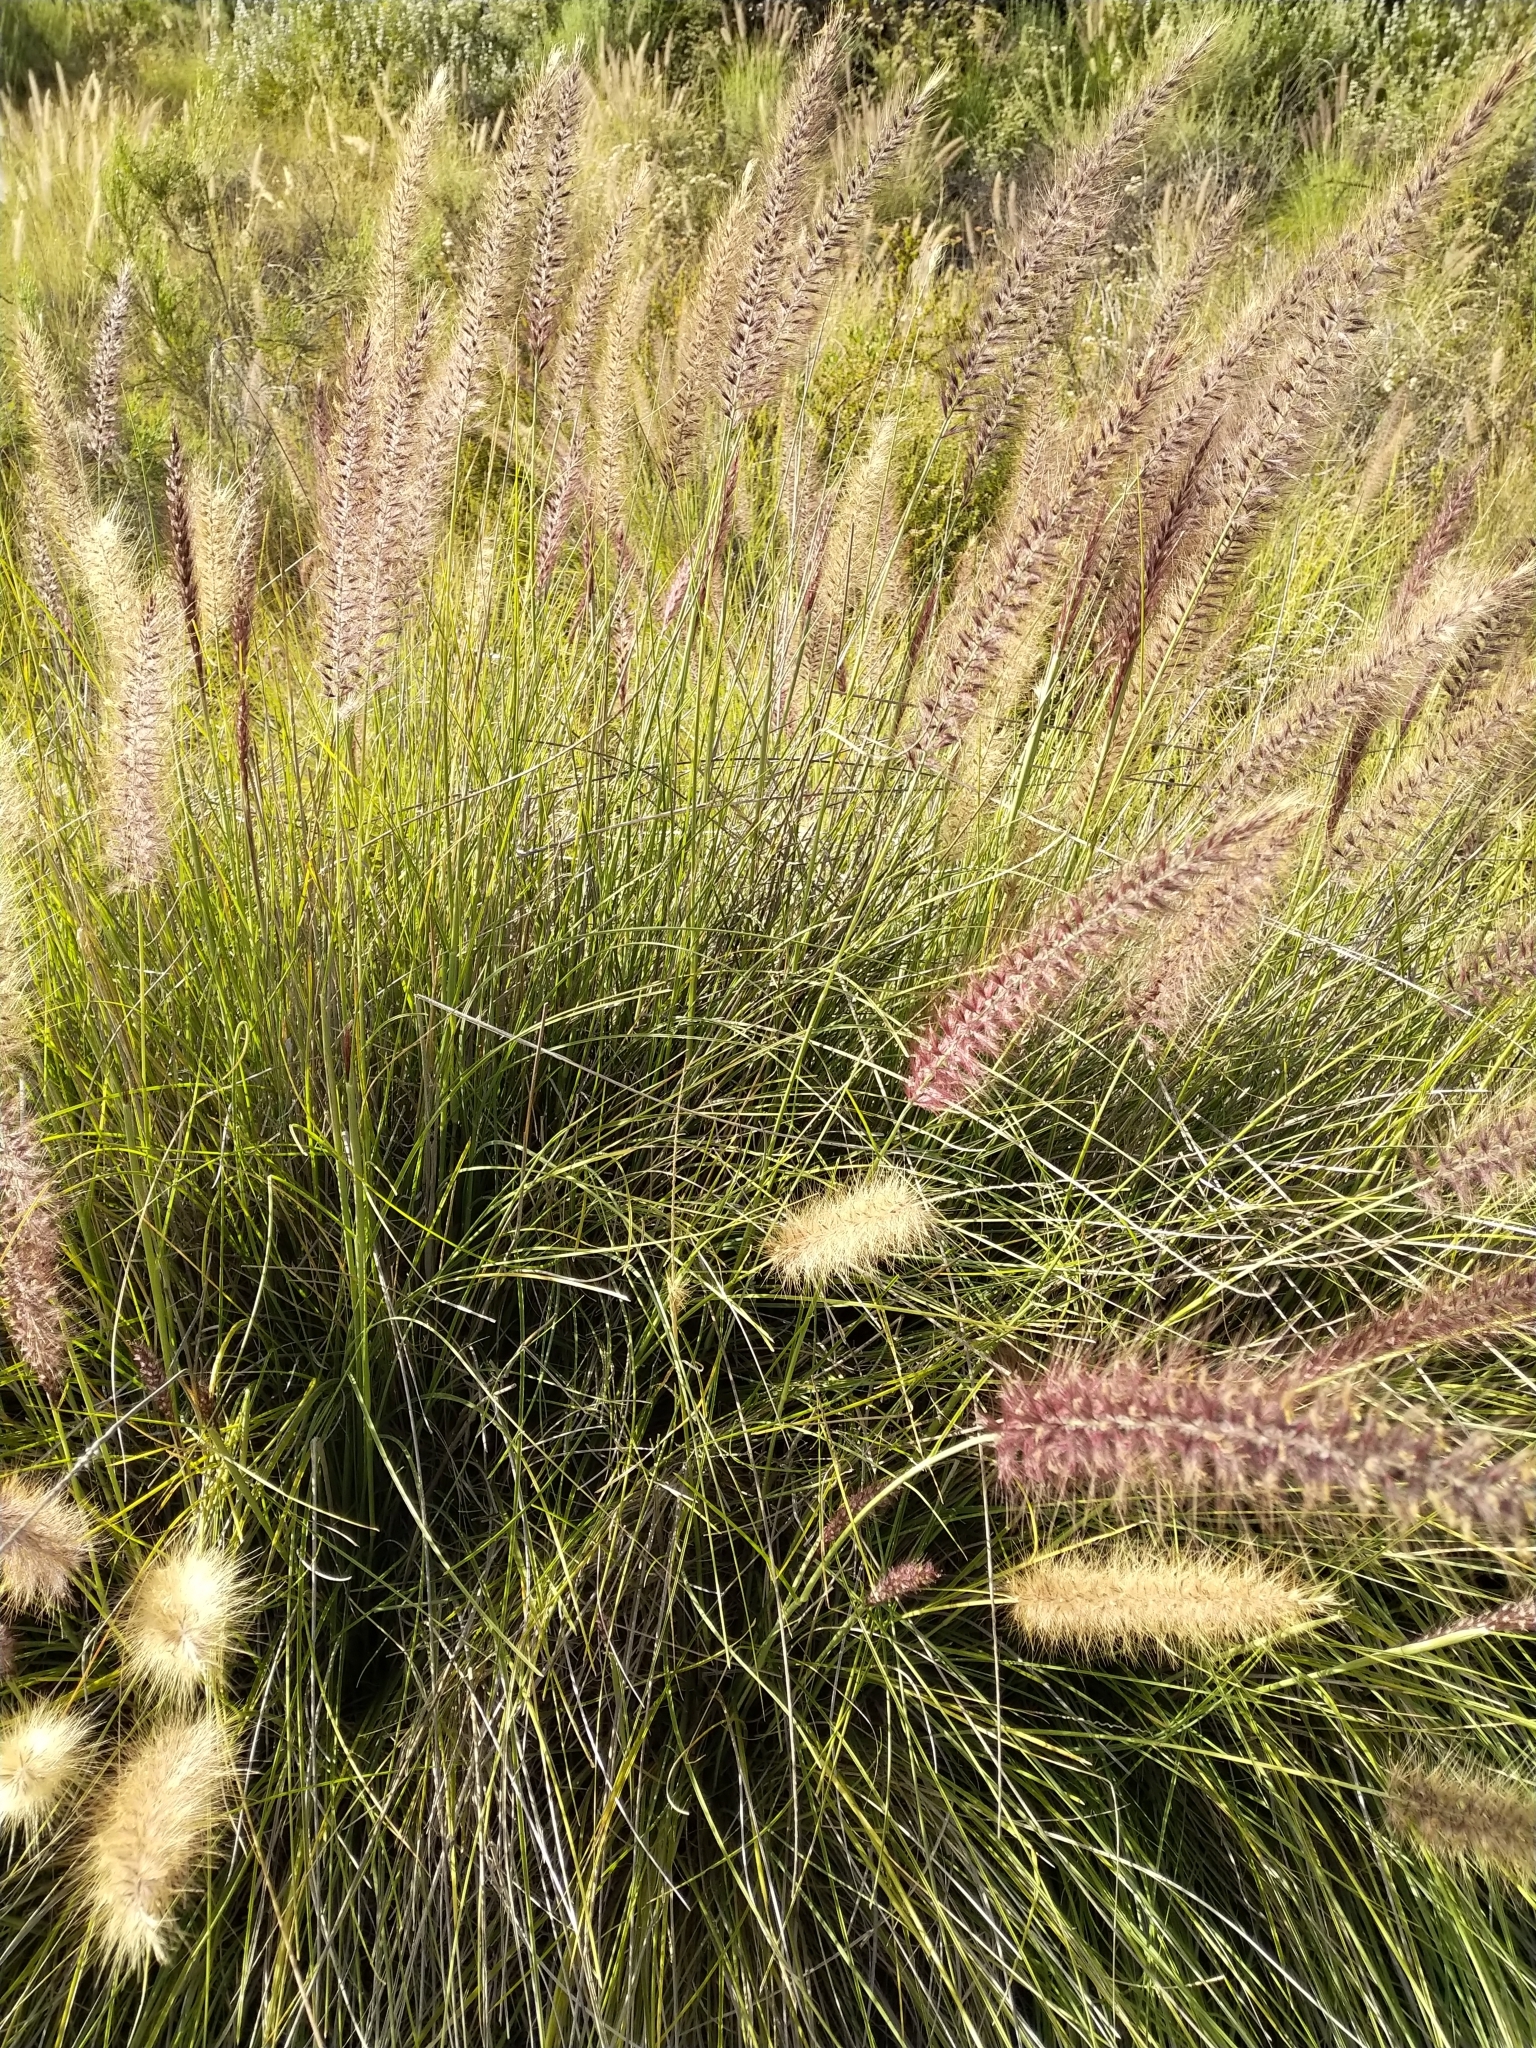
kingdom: Plantae
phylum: Tracheophyta
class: Liliopsida
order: Poales
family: Poaceae
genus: Cenchrus
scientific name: Cenchrus setaceus
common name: Crimson fountaingrass
